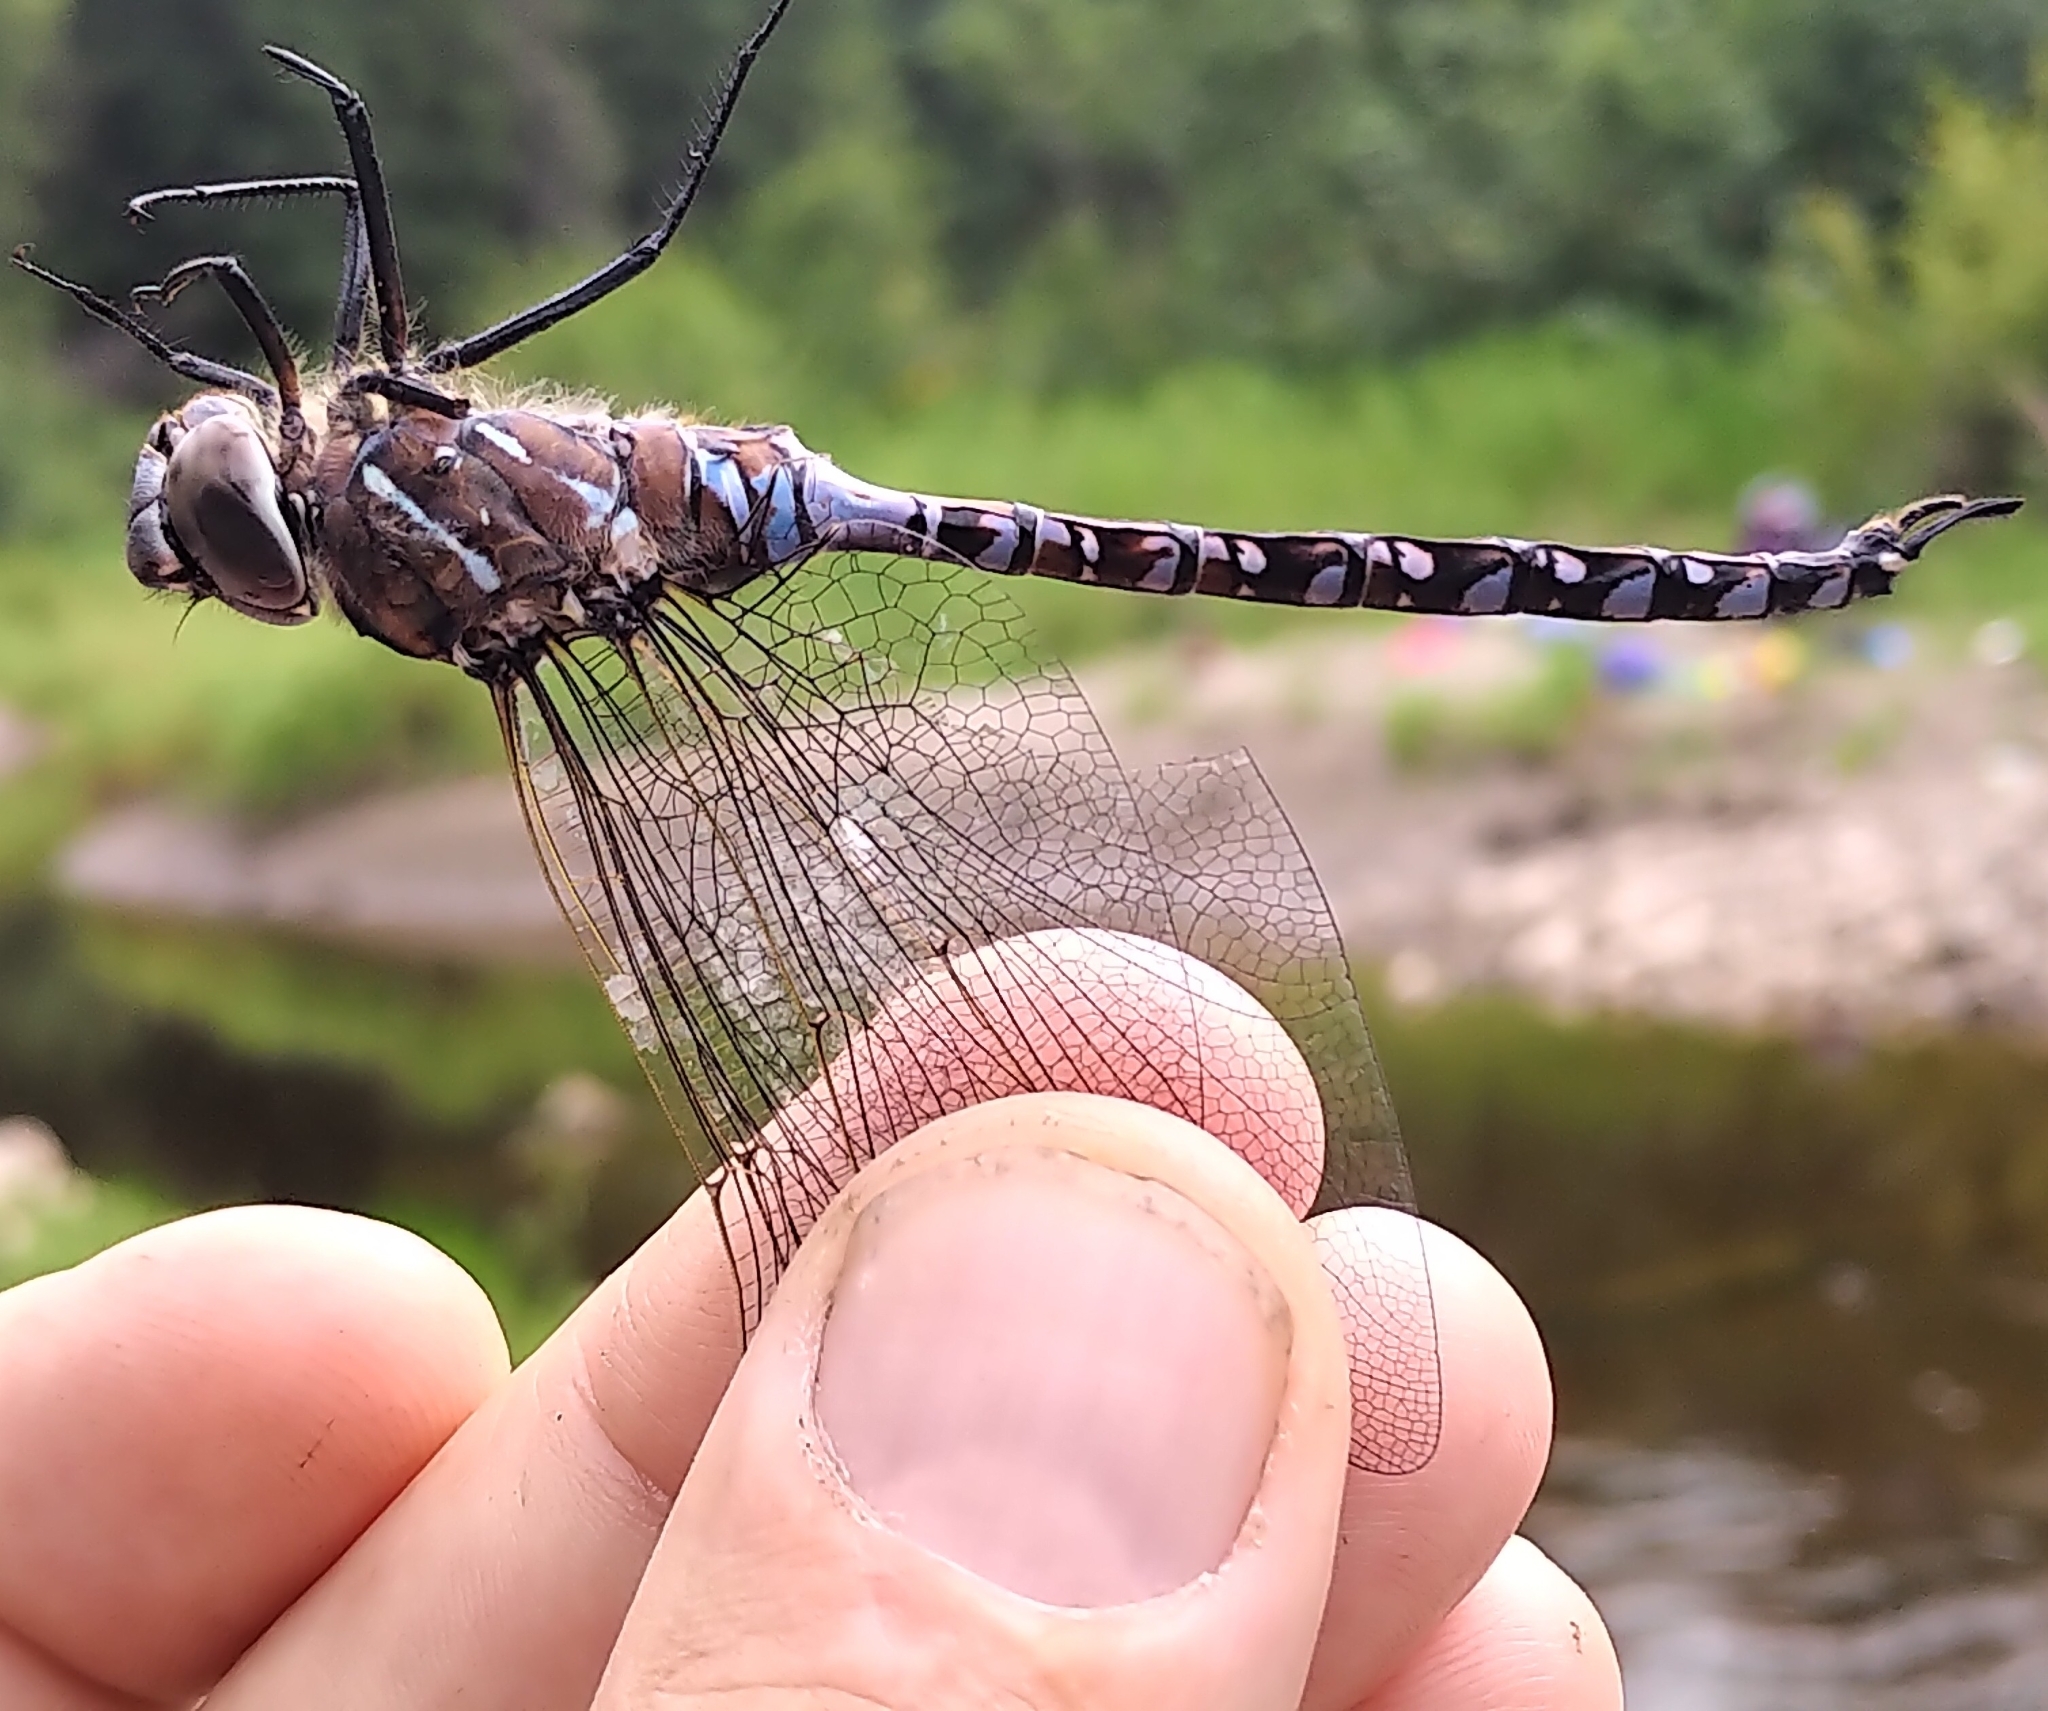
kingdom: Animalia
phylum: Arthropoda
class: Insecta
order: Odonata
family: Aeshnidae
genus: Aeshna
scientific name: Aeshna interrupta
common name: Variable darner
